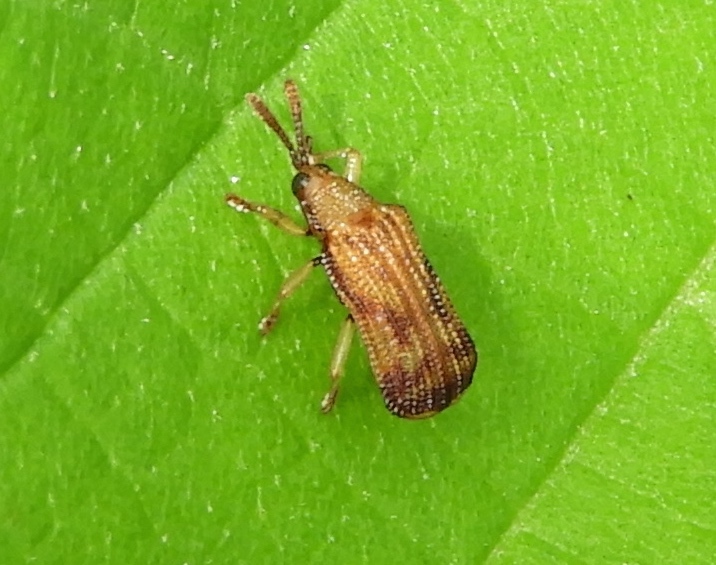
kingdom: Animalia
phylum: Arthropoda
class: Insecta
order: Coleoptera
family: Chrysomelidae
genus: Baliosus
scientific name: Baliosus vittaticollis
